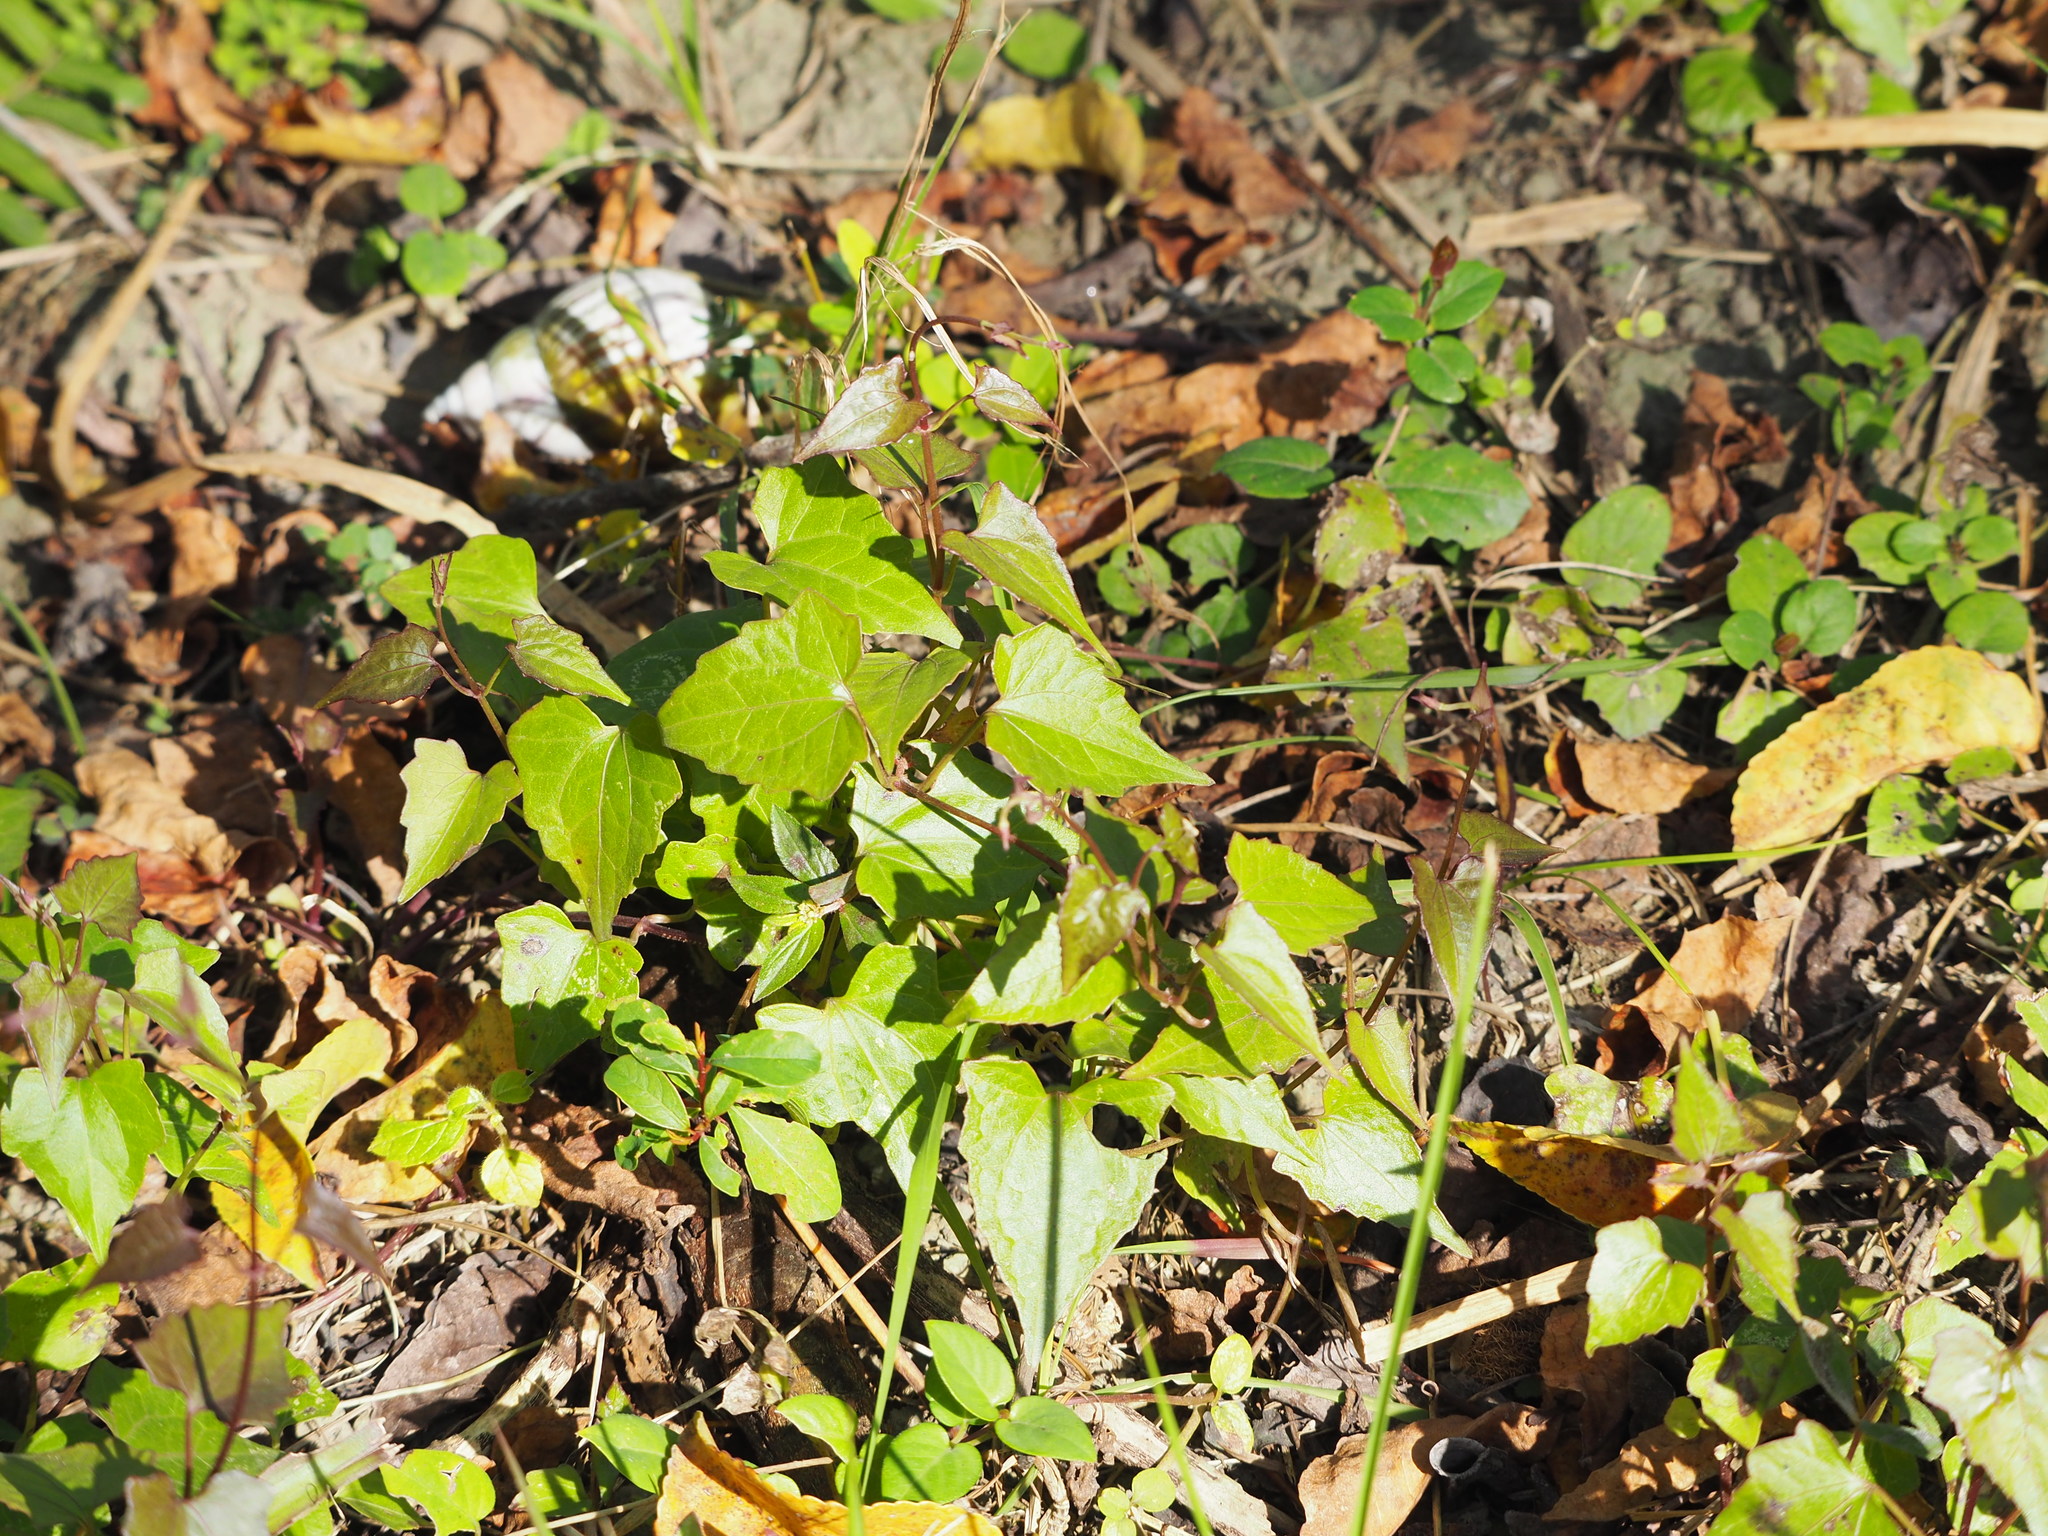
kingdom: Plantae
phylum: Tracheophyta
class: Magnoliopsida
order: Asterales
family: Asteraceae
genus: Mikania
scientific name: Mikania micrantha
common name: Mile-a-minute
